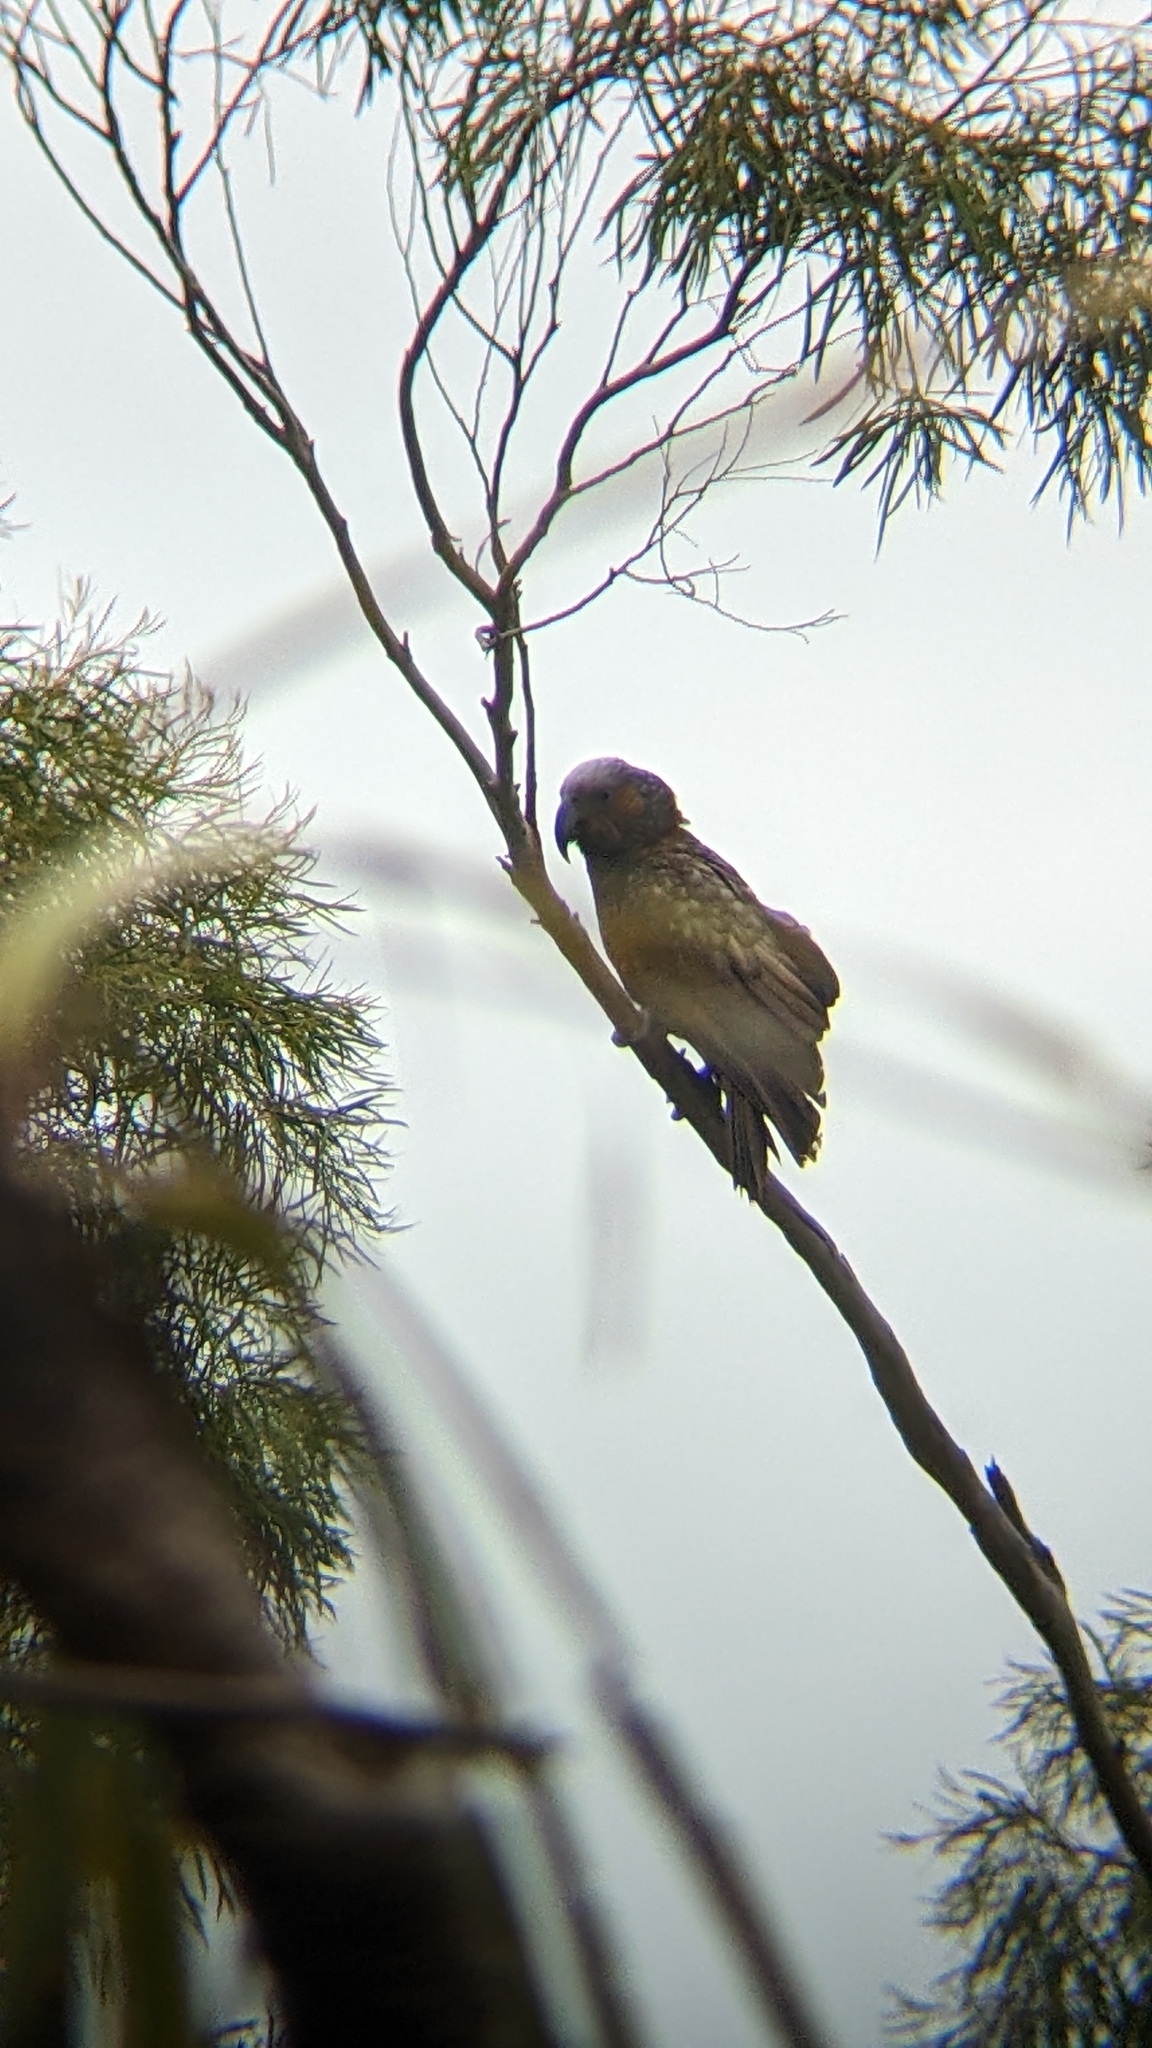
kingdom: Animalia
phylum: Chordata
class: Aves
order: Psittaciformes
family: Psittacidae
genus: Nestor
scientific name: Nestor meridionalis
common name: New zealand kaka
